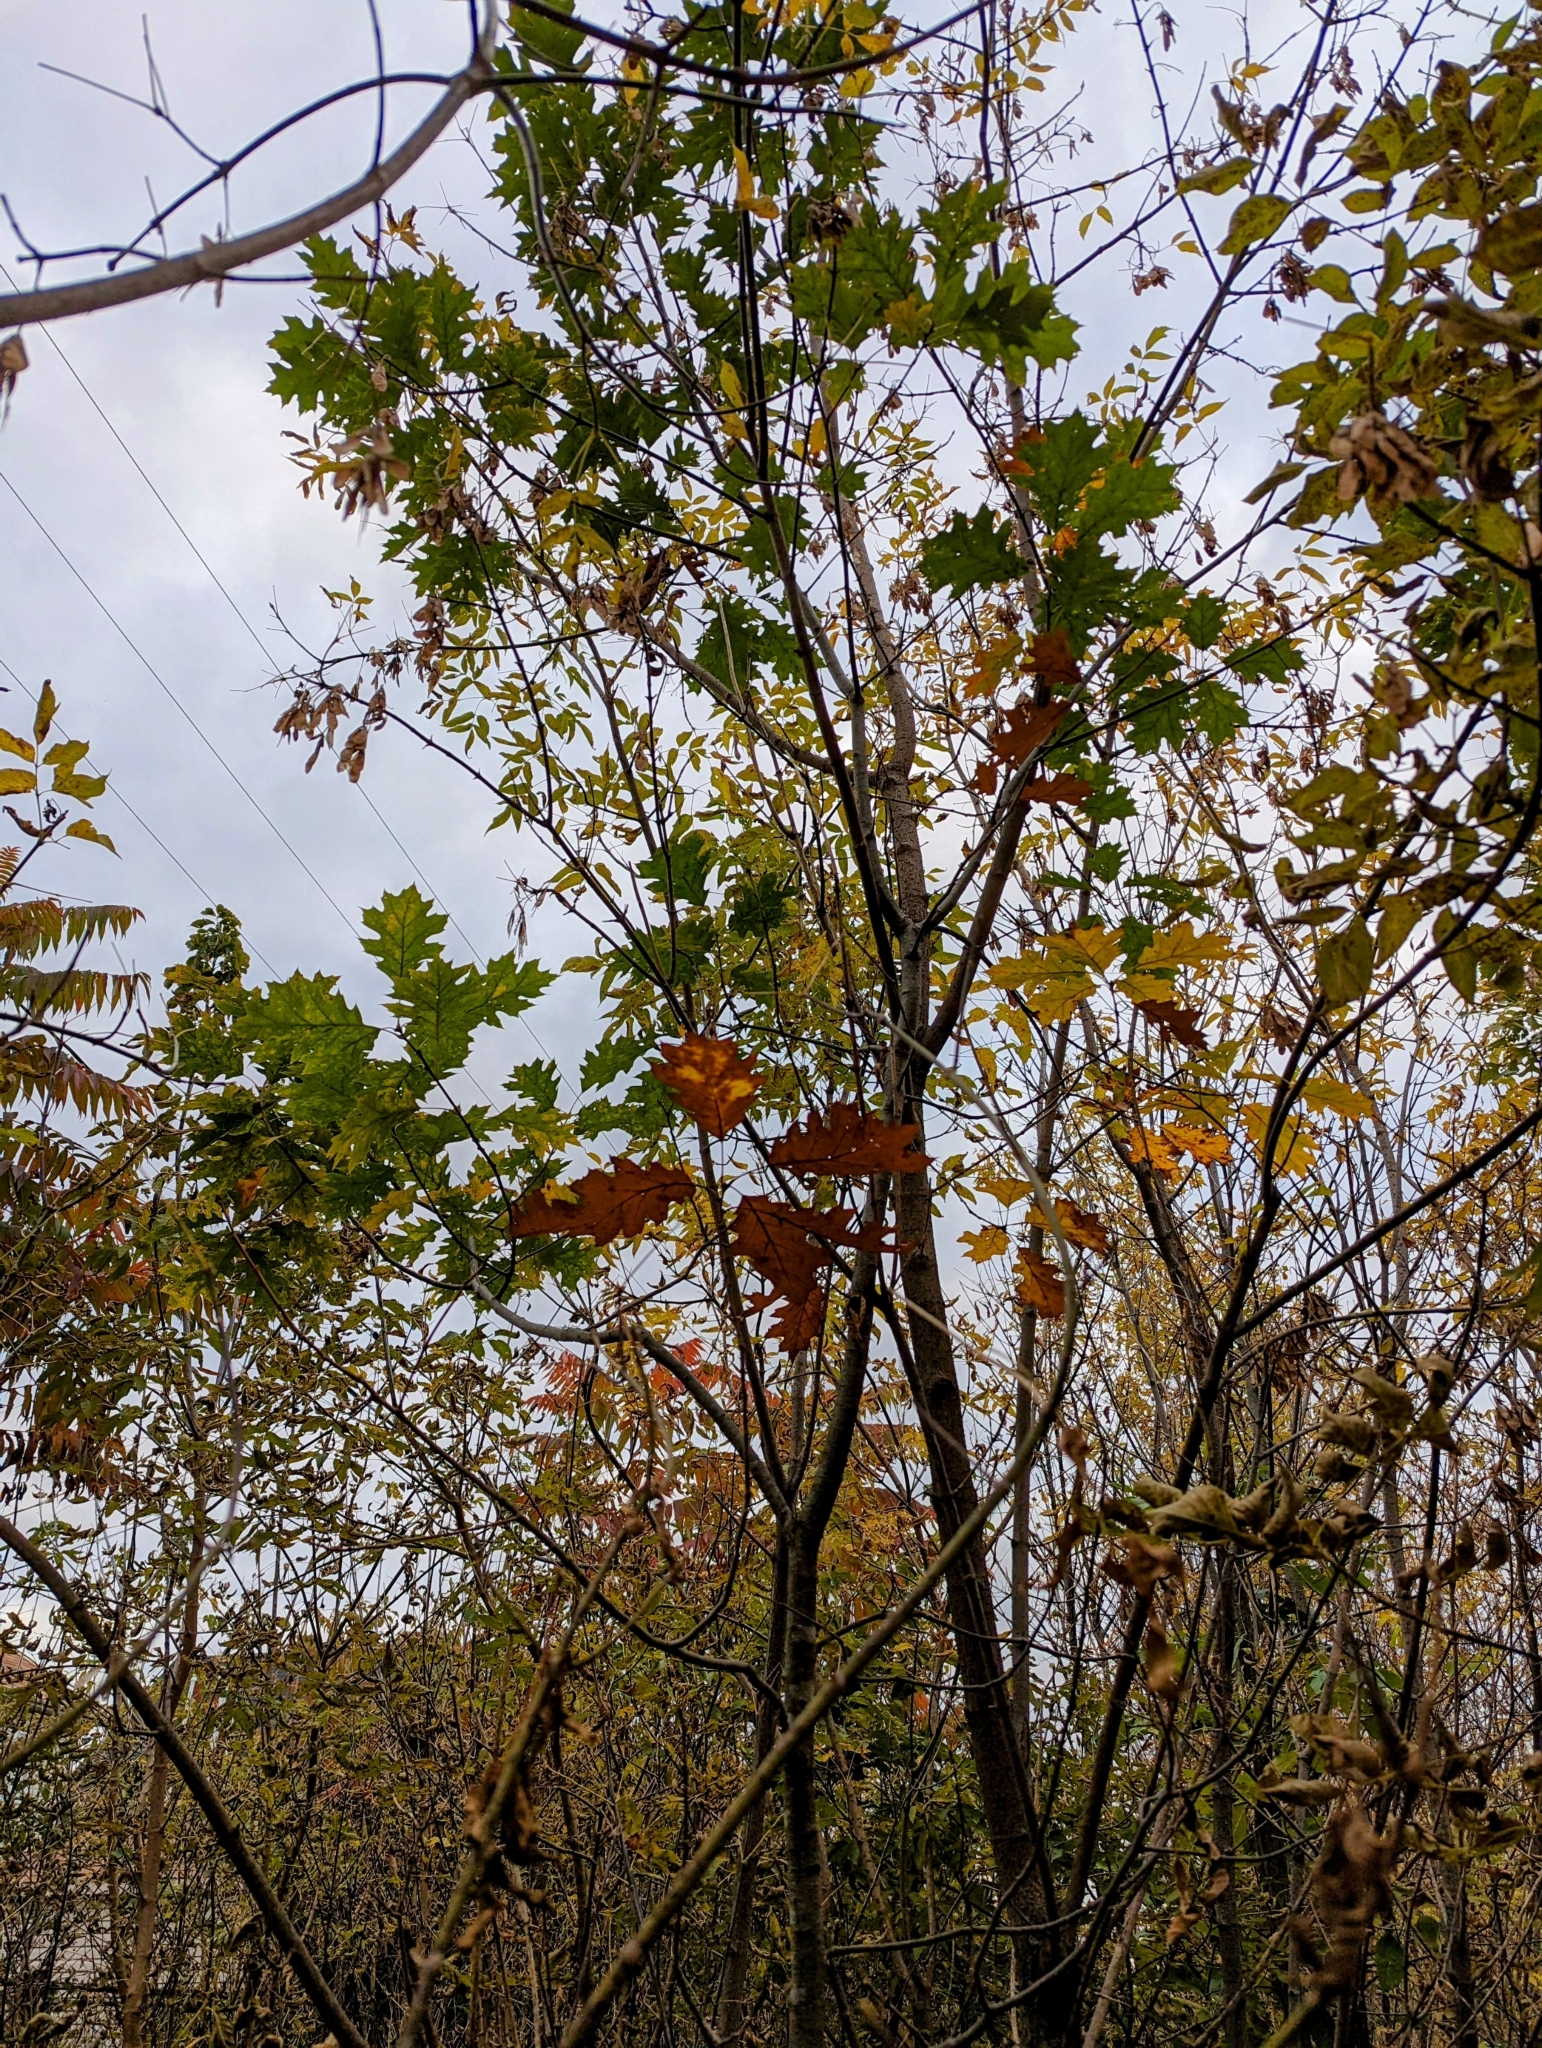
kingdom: Plantae
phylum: Tracheophyta
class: Magnoliopsida
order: Fagales
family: Fagaceae
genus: Quercus
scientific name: Quercus rubra
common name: Red oak
